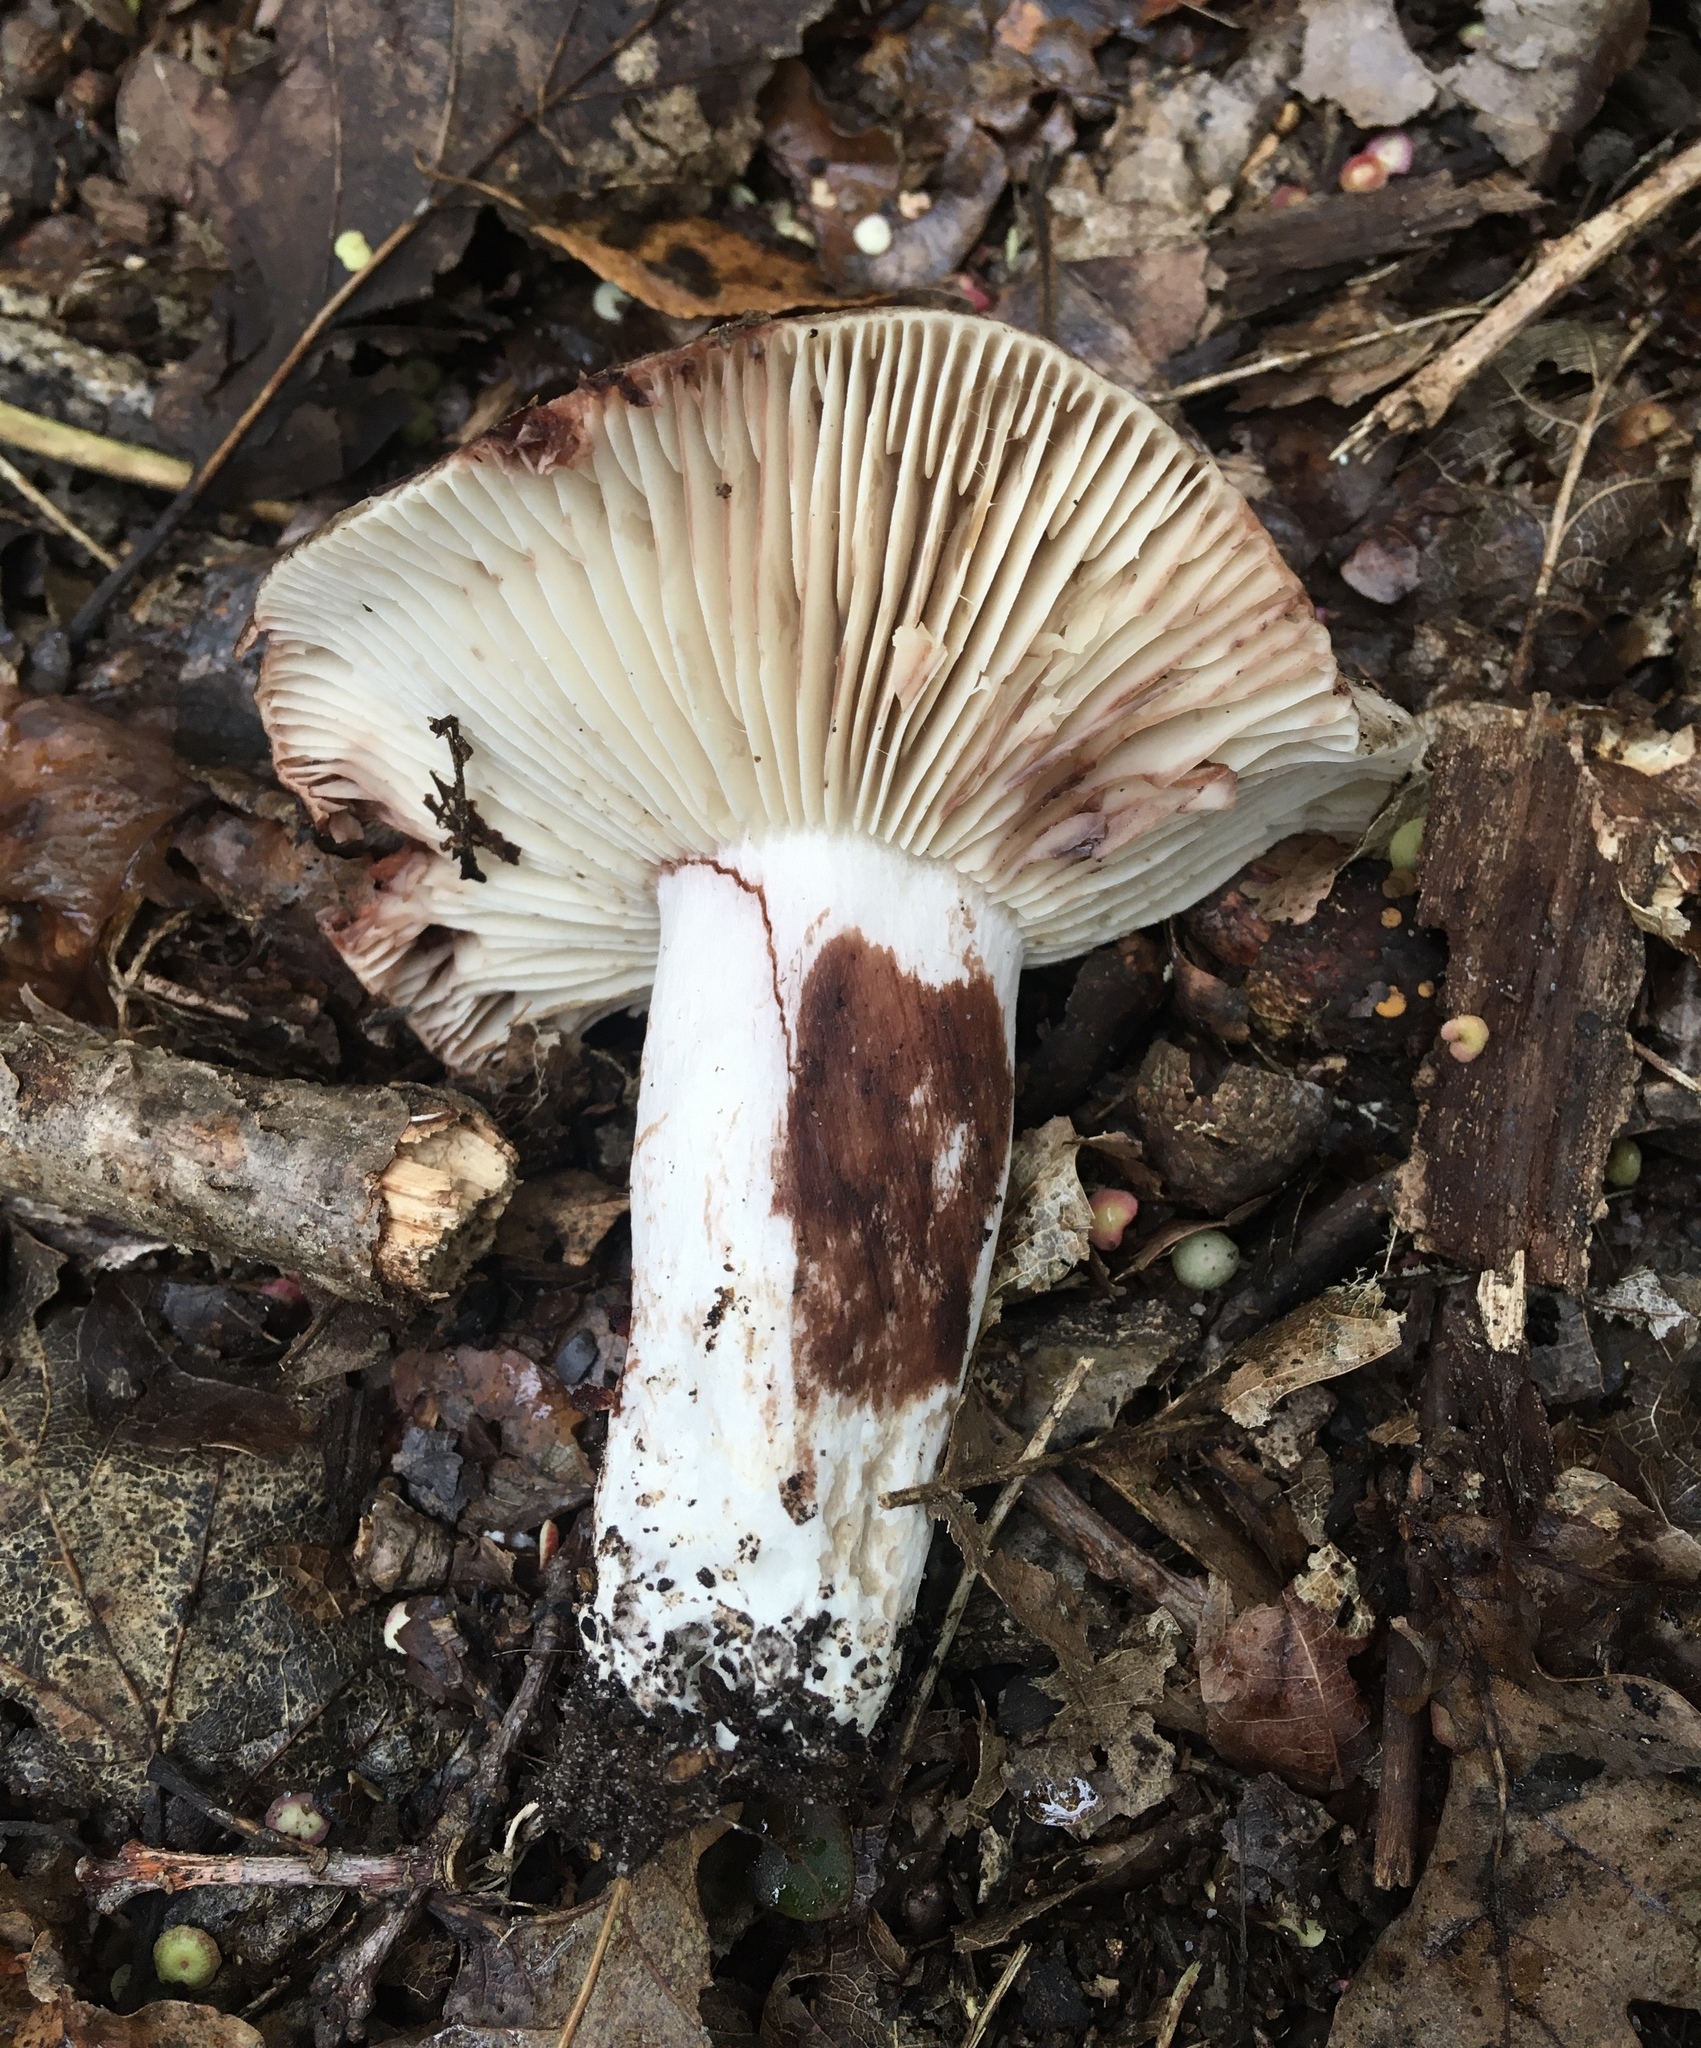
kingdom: Fungi
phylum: Basidiomycota
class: Agaricomycetes
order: Russulales
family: Russulaceae
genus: Russula
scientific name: Russula adusta
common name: Winecork brittlegill
